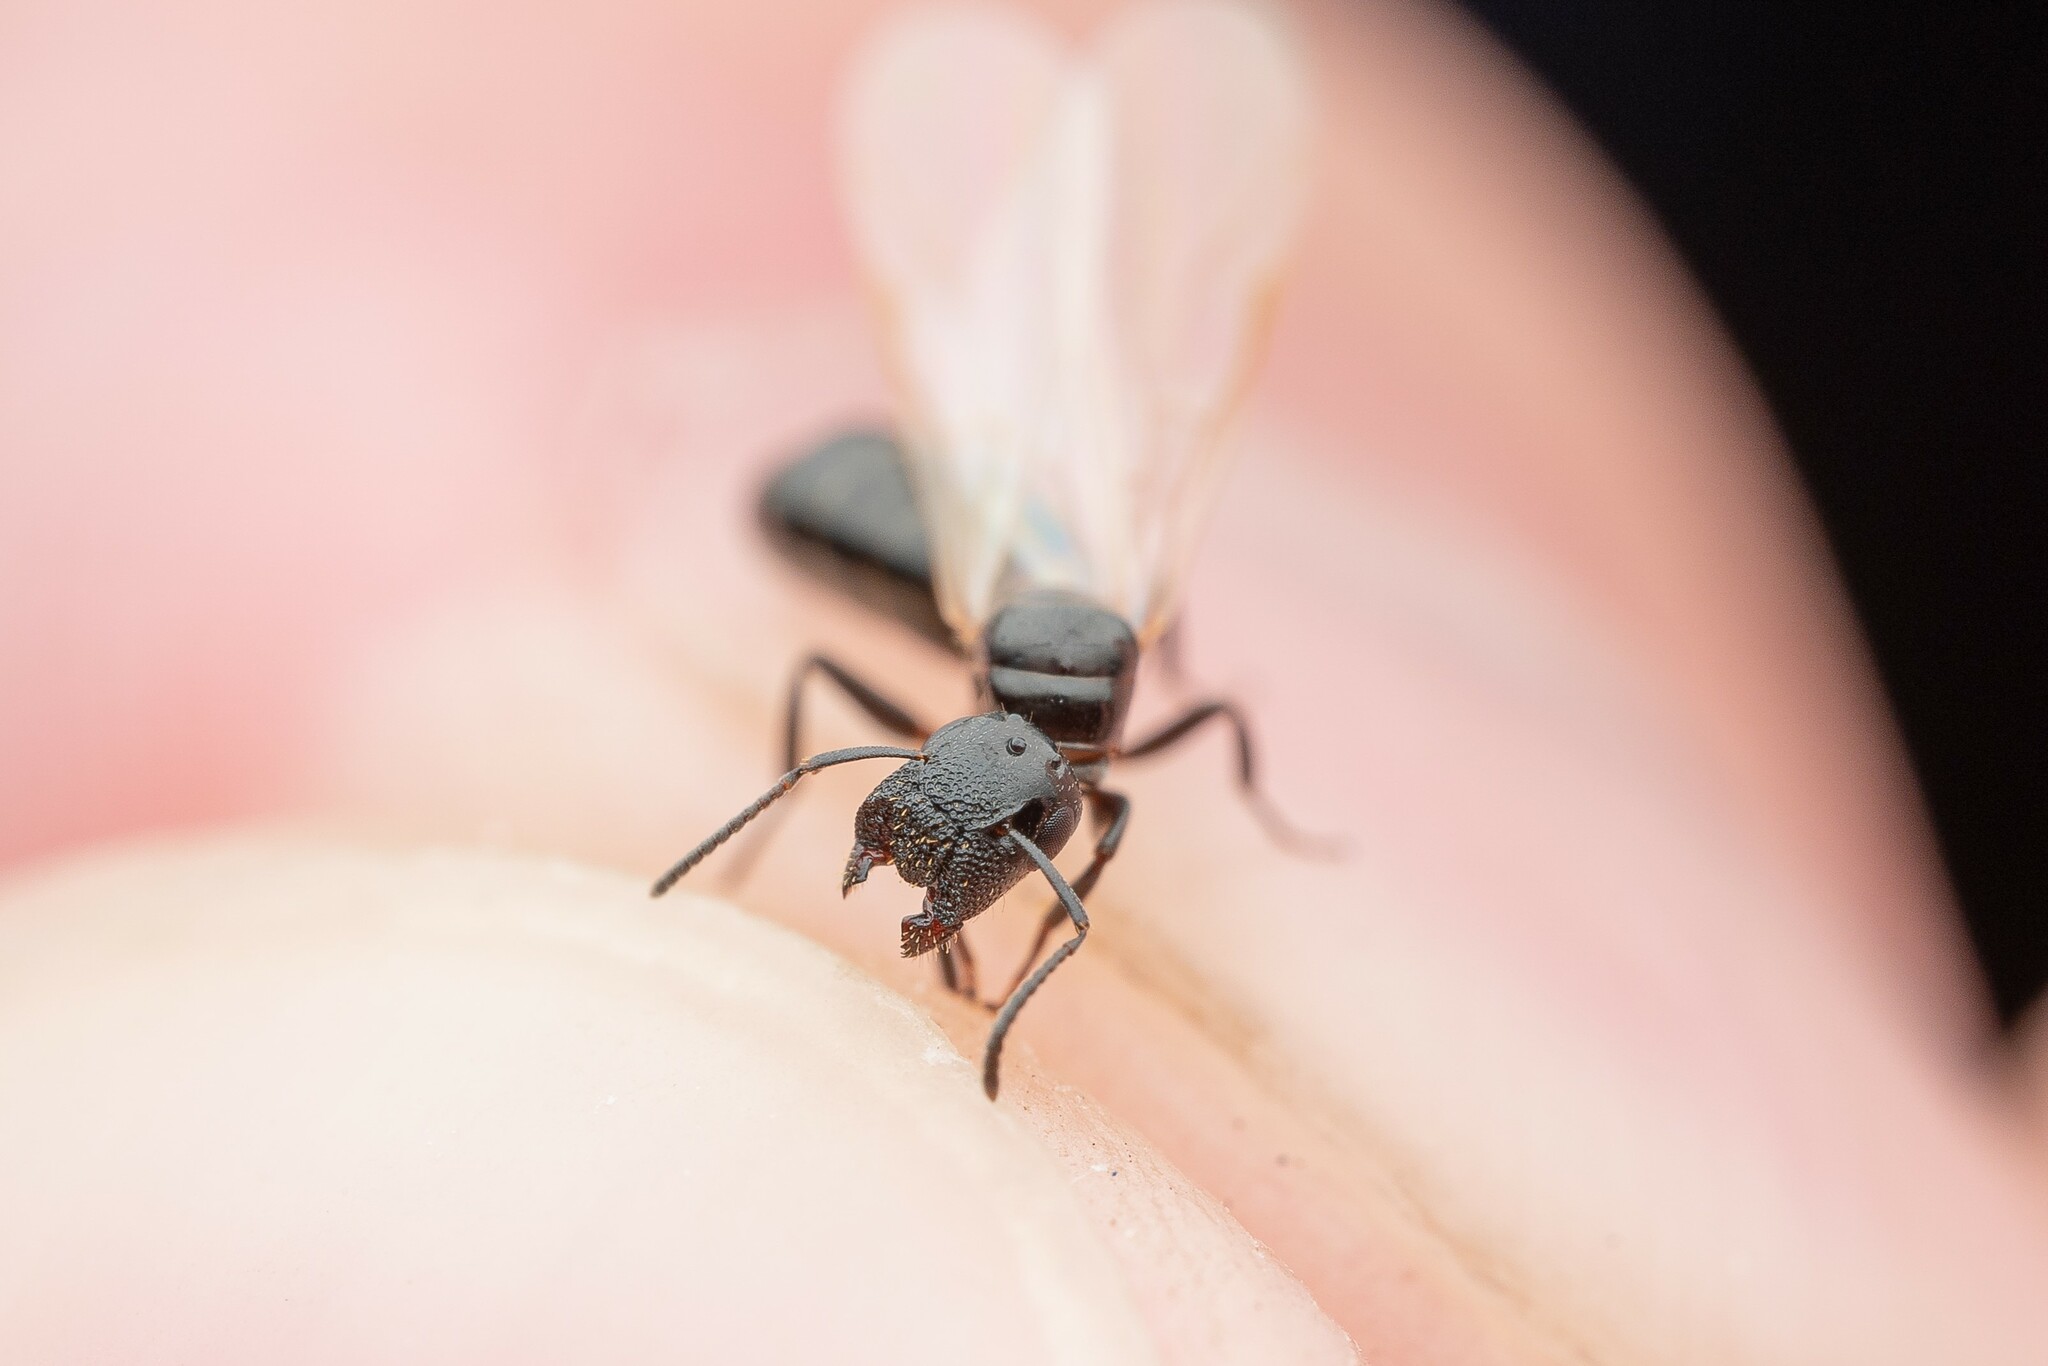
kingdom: Animalia
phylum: Arthropoda
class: Insecta
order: Hymenoptera
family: Formicidae
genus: Colobopsis
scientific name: Colobopsis
